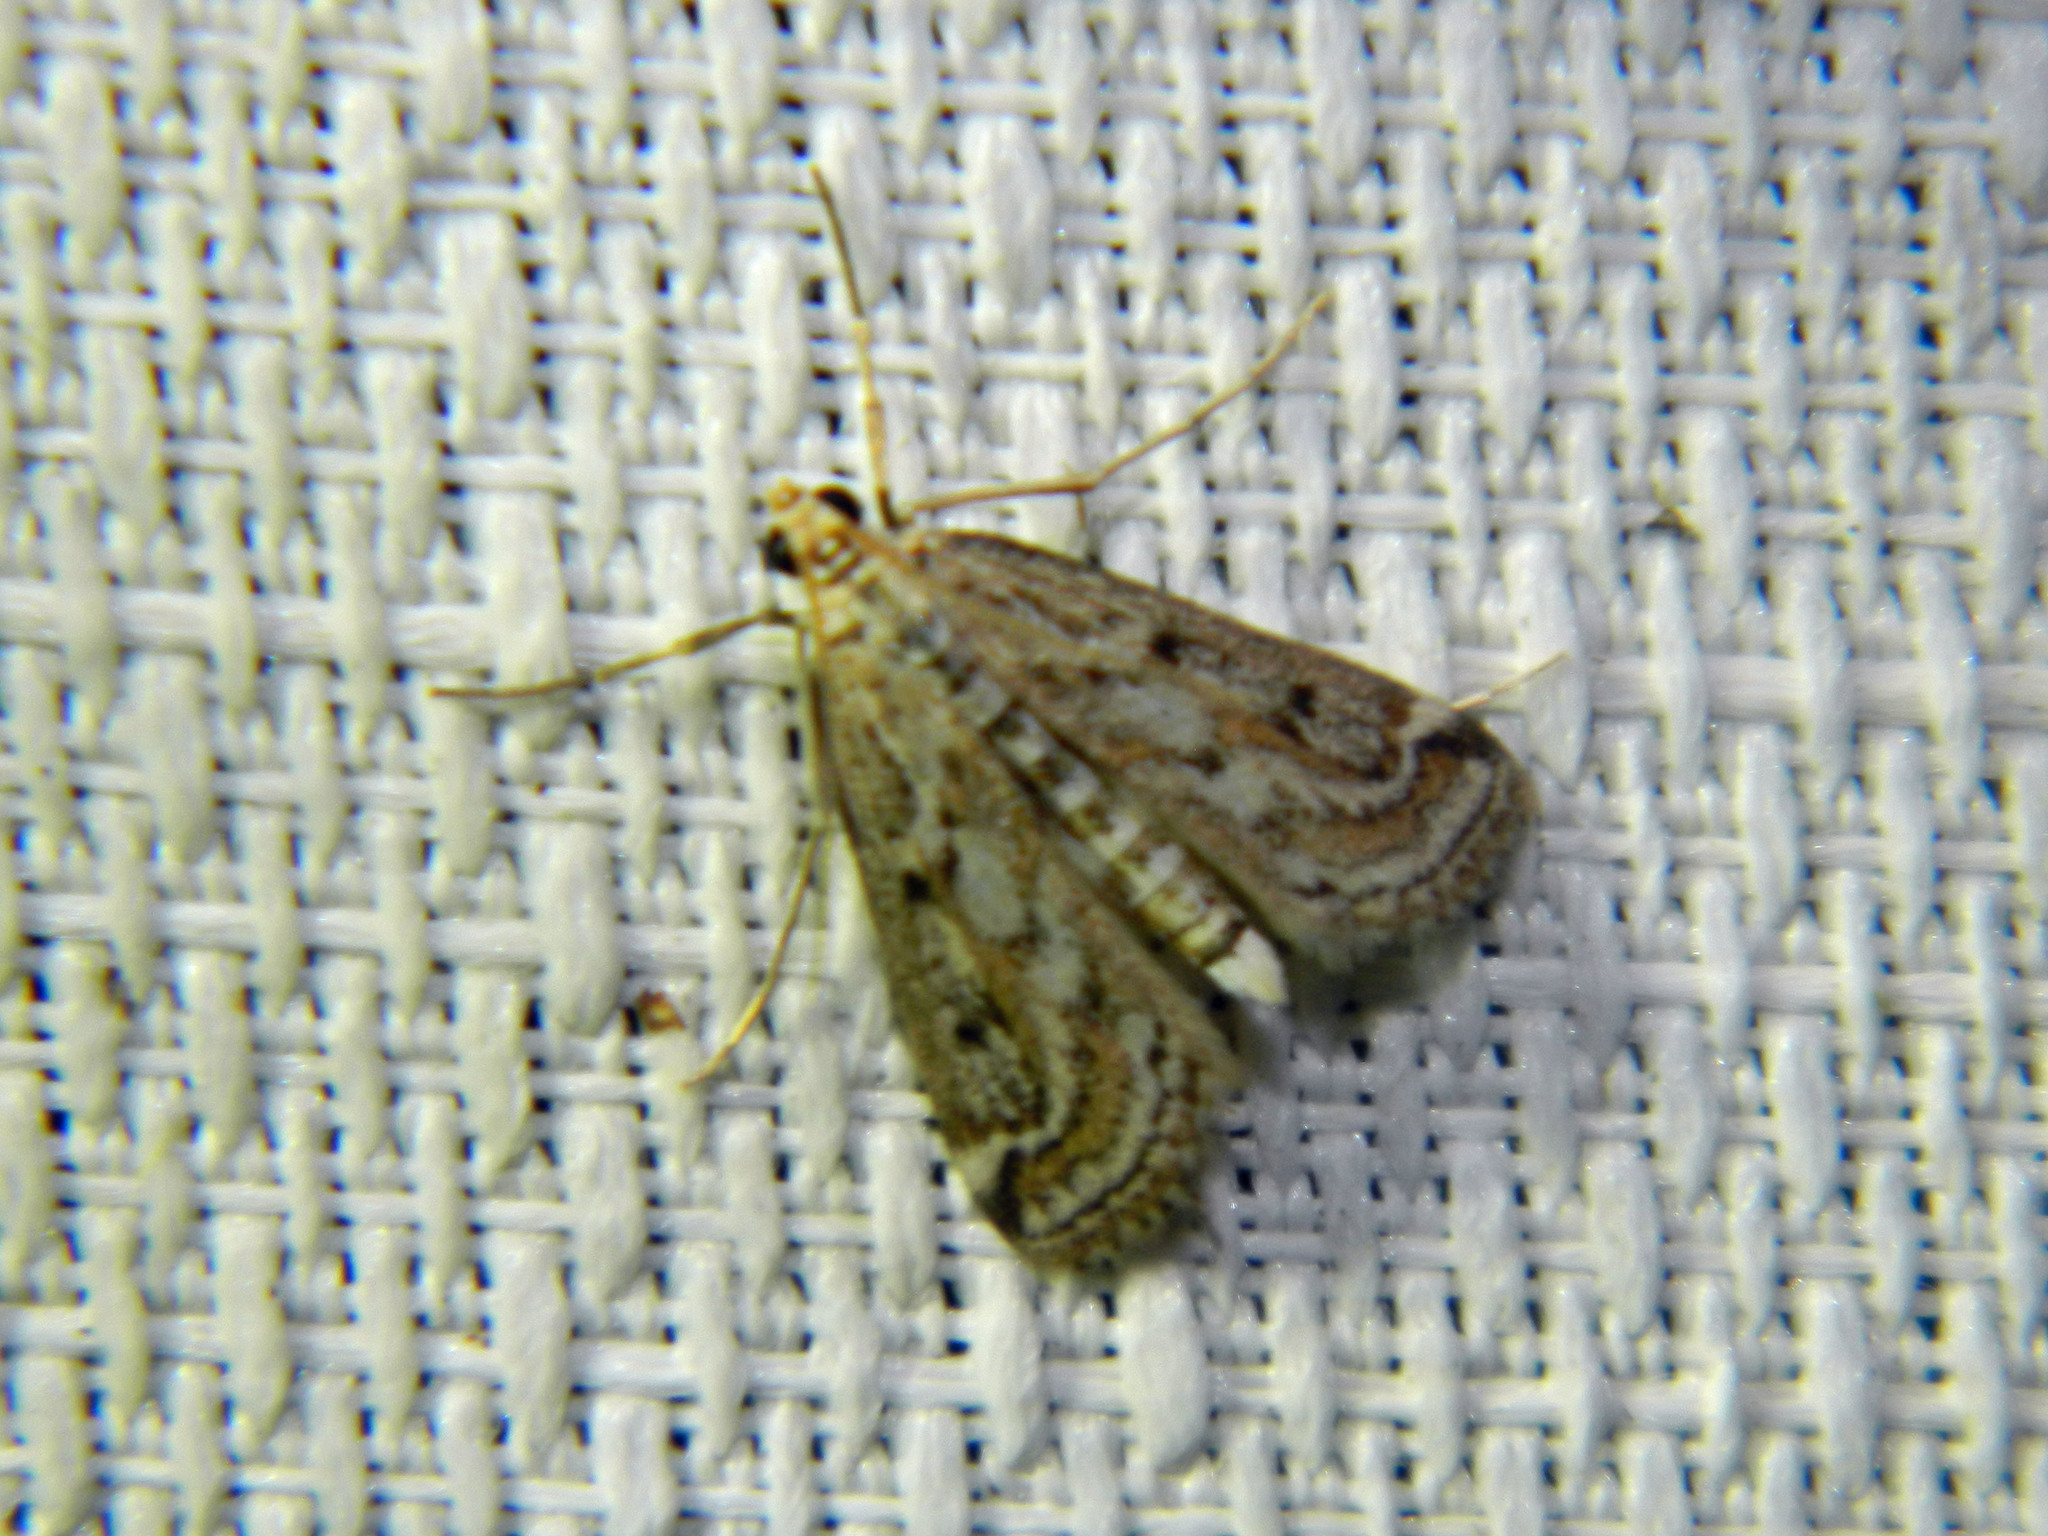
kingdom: Animalia
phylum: Arthropoda
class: Insecta
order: Lepidoptera
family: Crambidae
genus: Parapoynx
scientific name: Parapoynx allionealis
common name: Bladderwort casemaker
